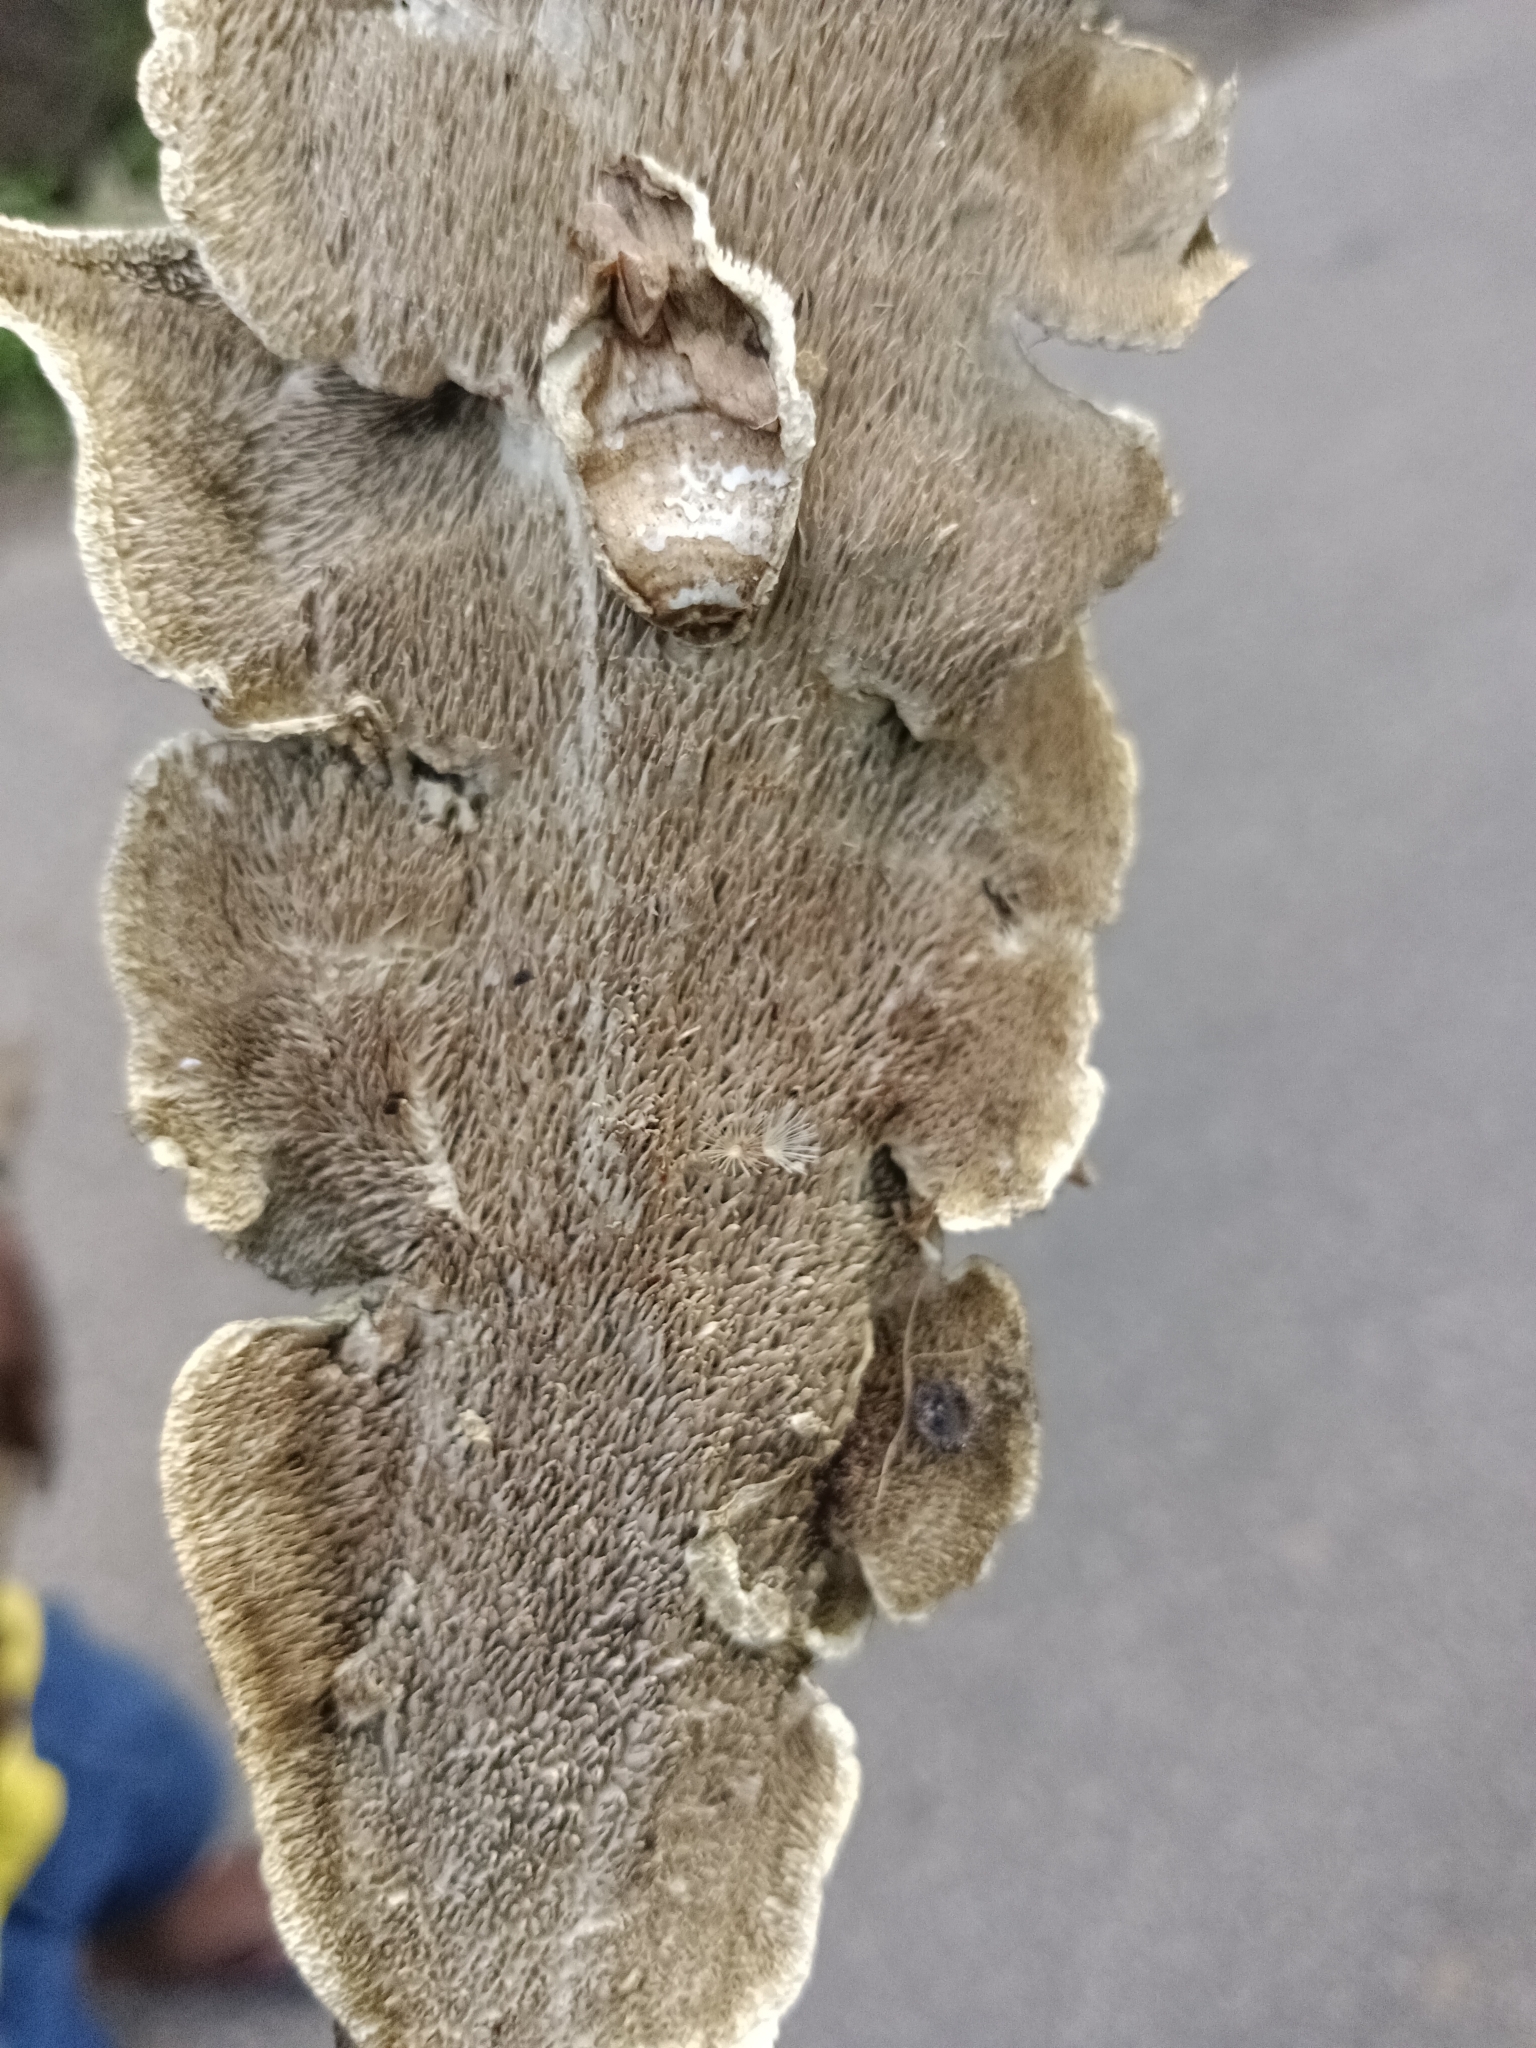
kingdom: Fungi
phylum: Basidiomycota
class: Agaricomycetes
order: Polyporales
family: Irpicaceae
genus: Flavodon
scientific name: Flavodon flavus
